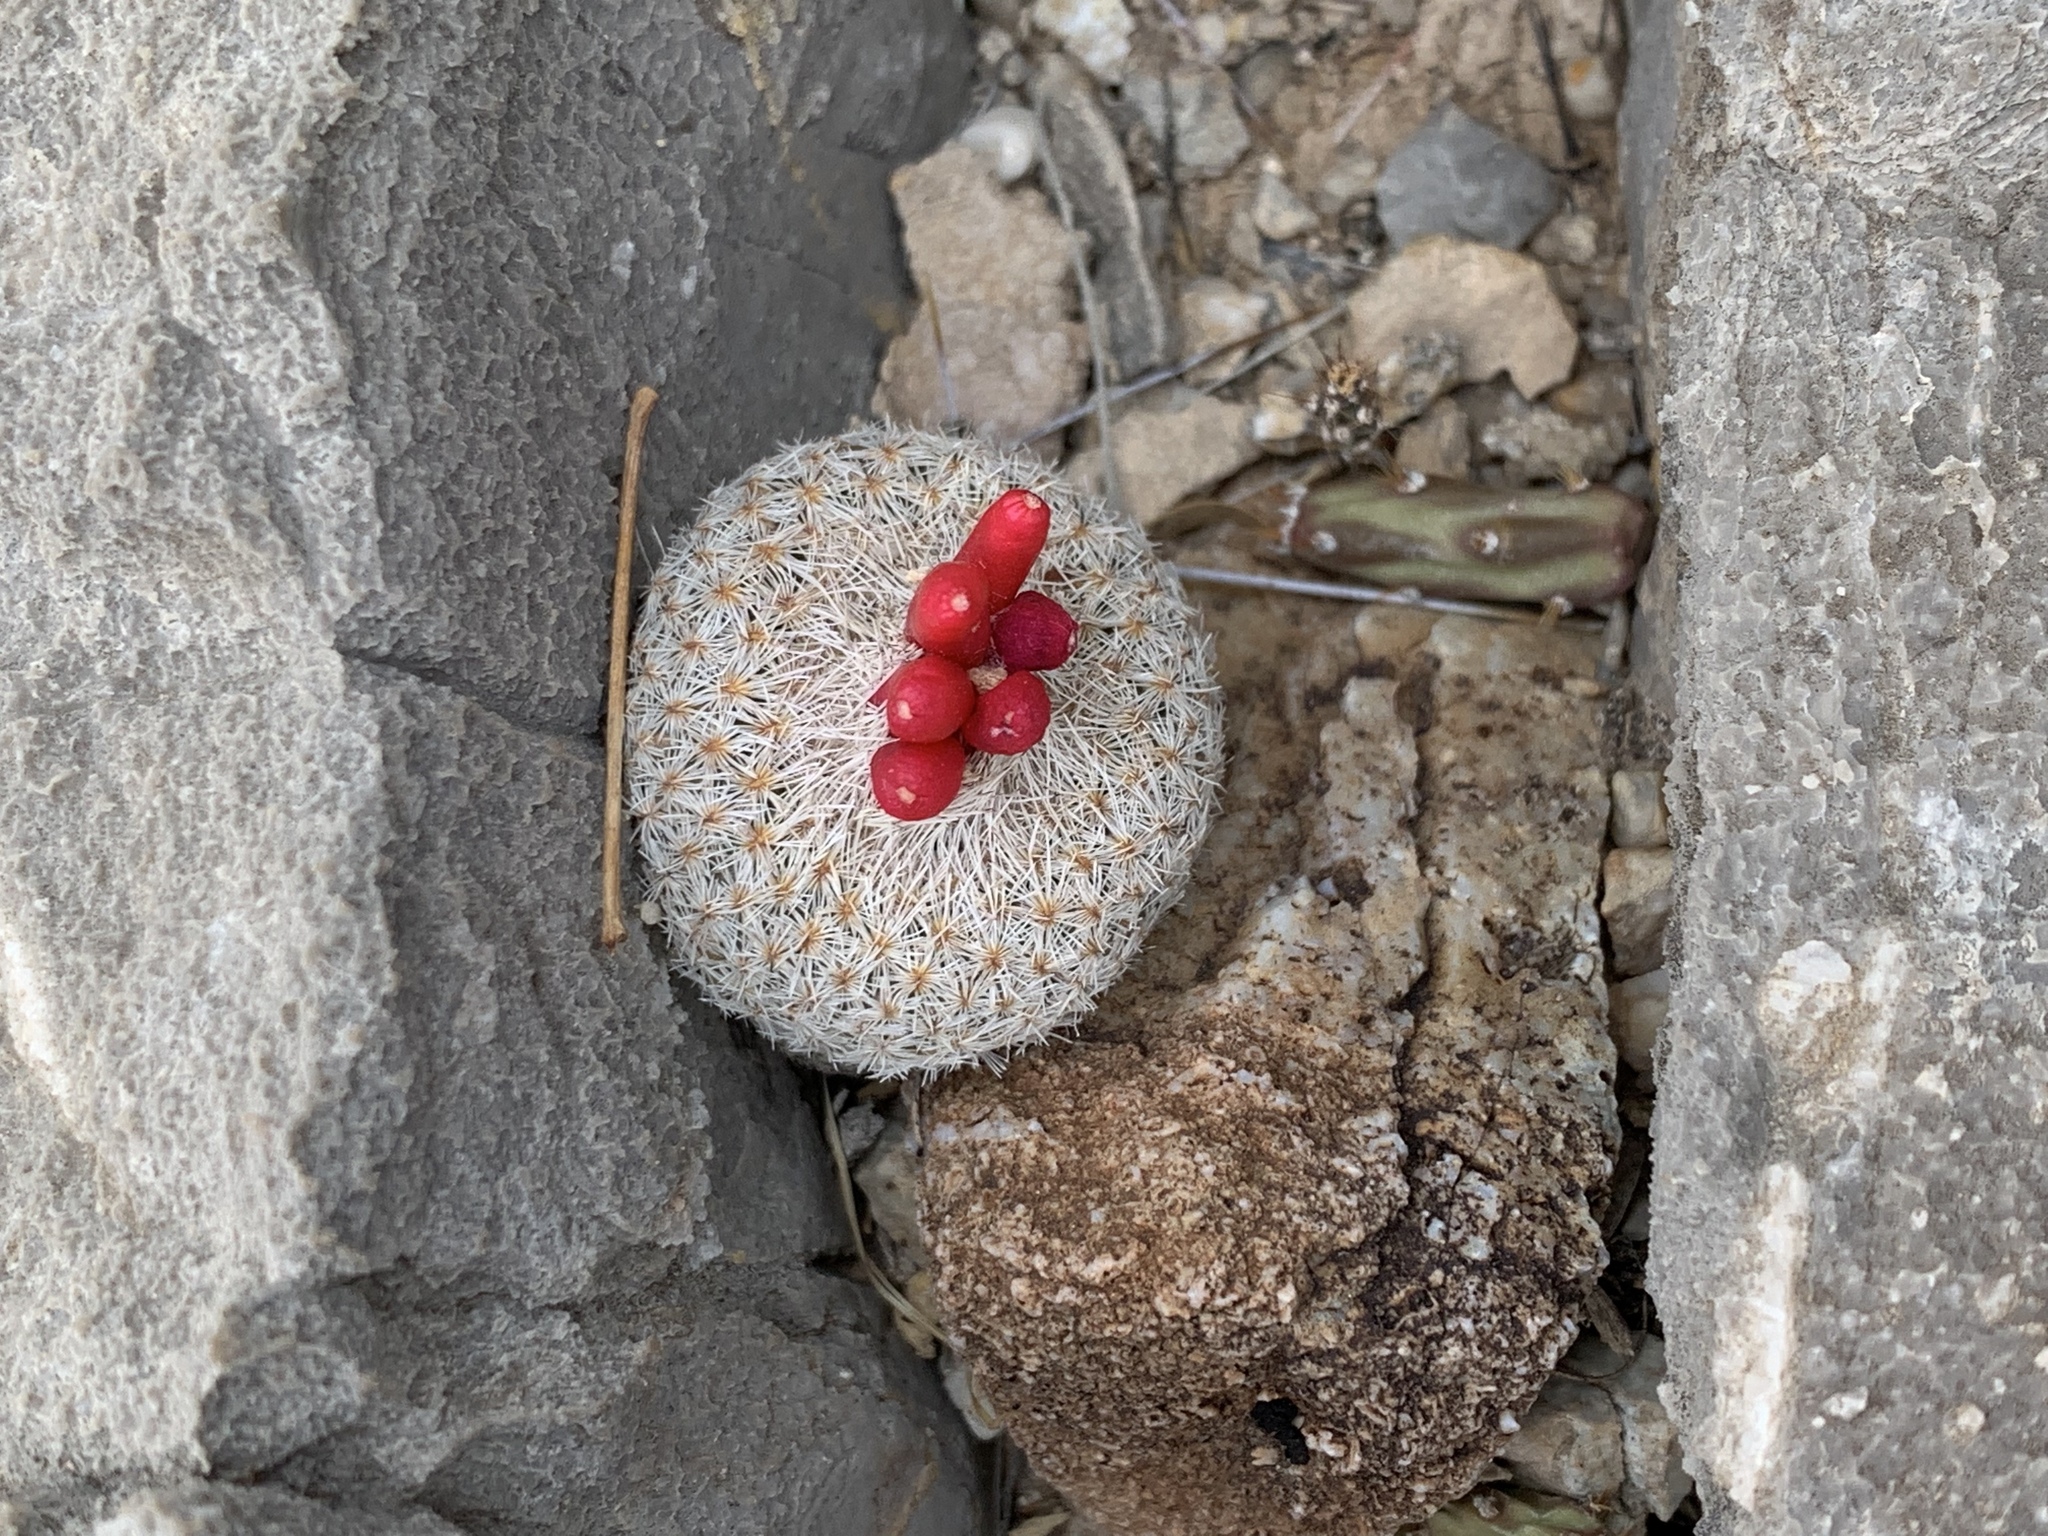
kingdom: Plantae
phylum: Tracheophyta
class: Magnoliopsida
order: Caryophyllales
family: Cactaceae
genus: Epithelantha
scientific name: Epithelantha micromeris
